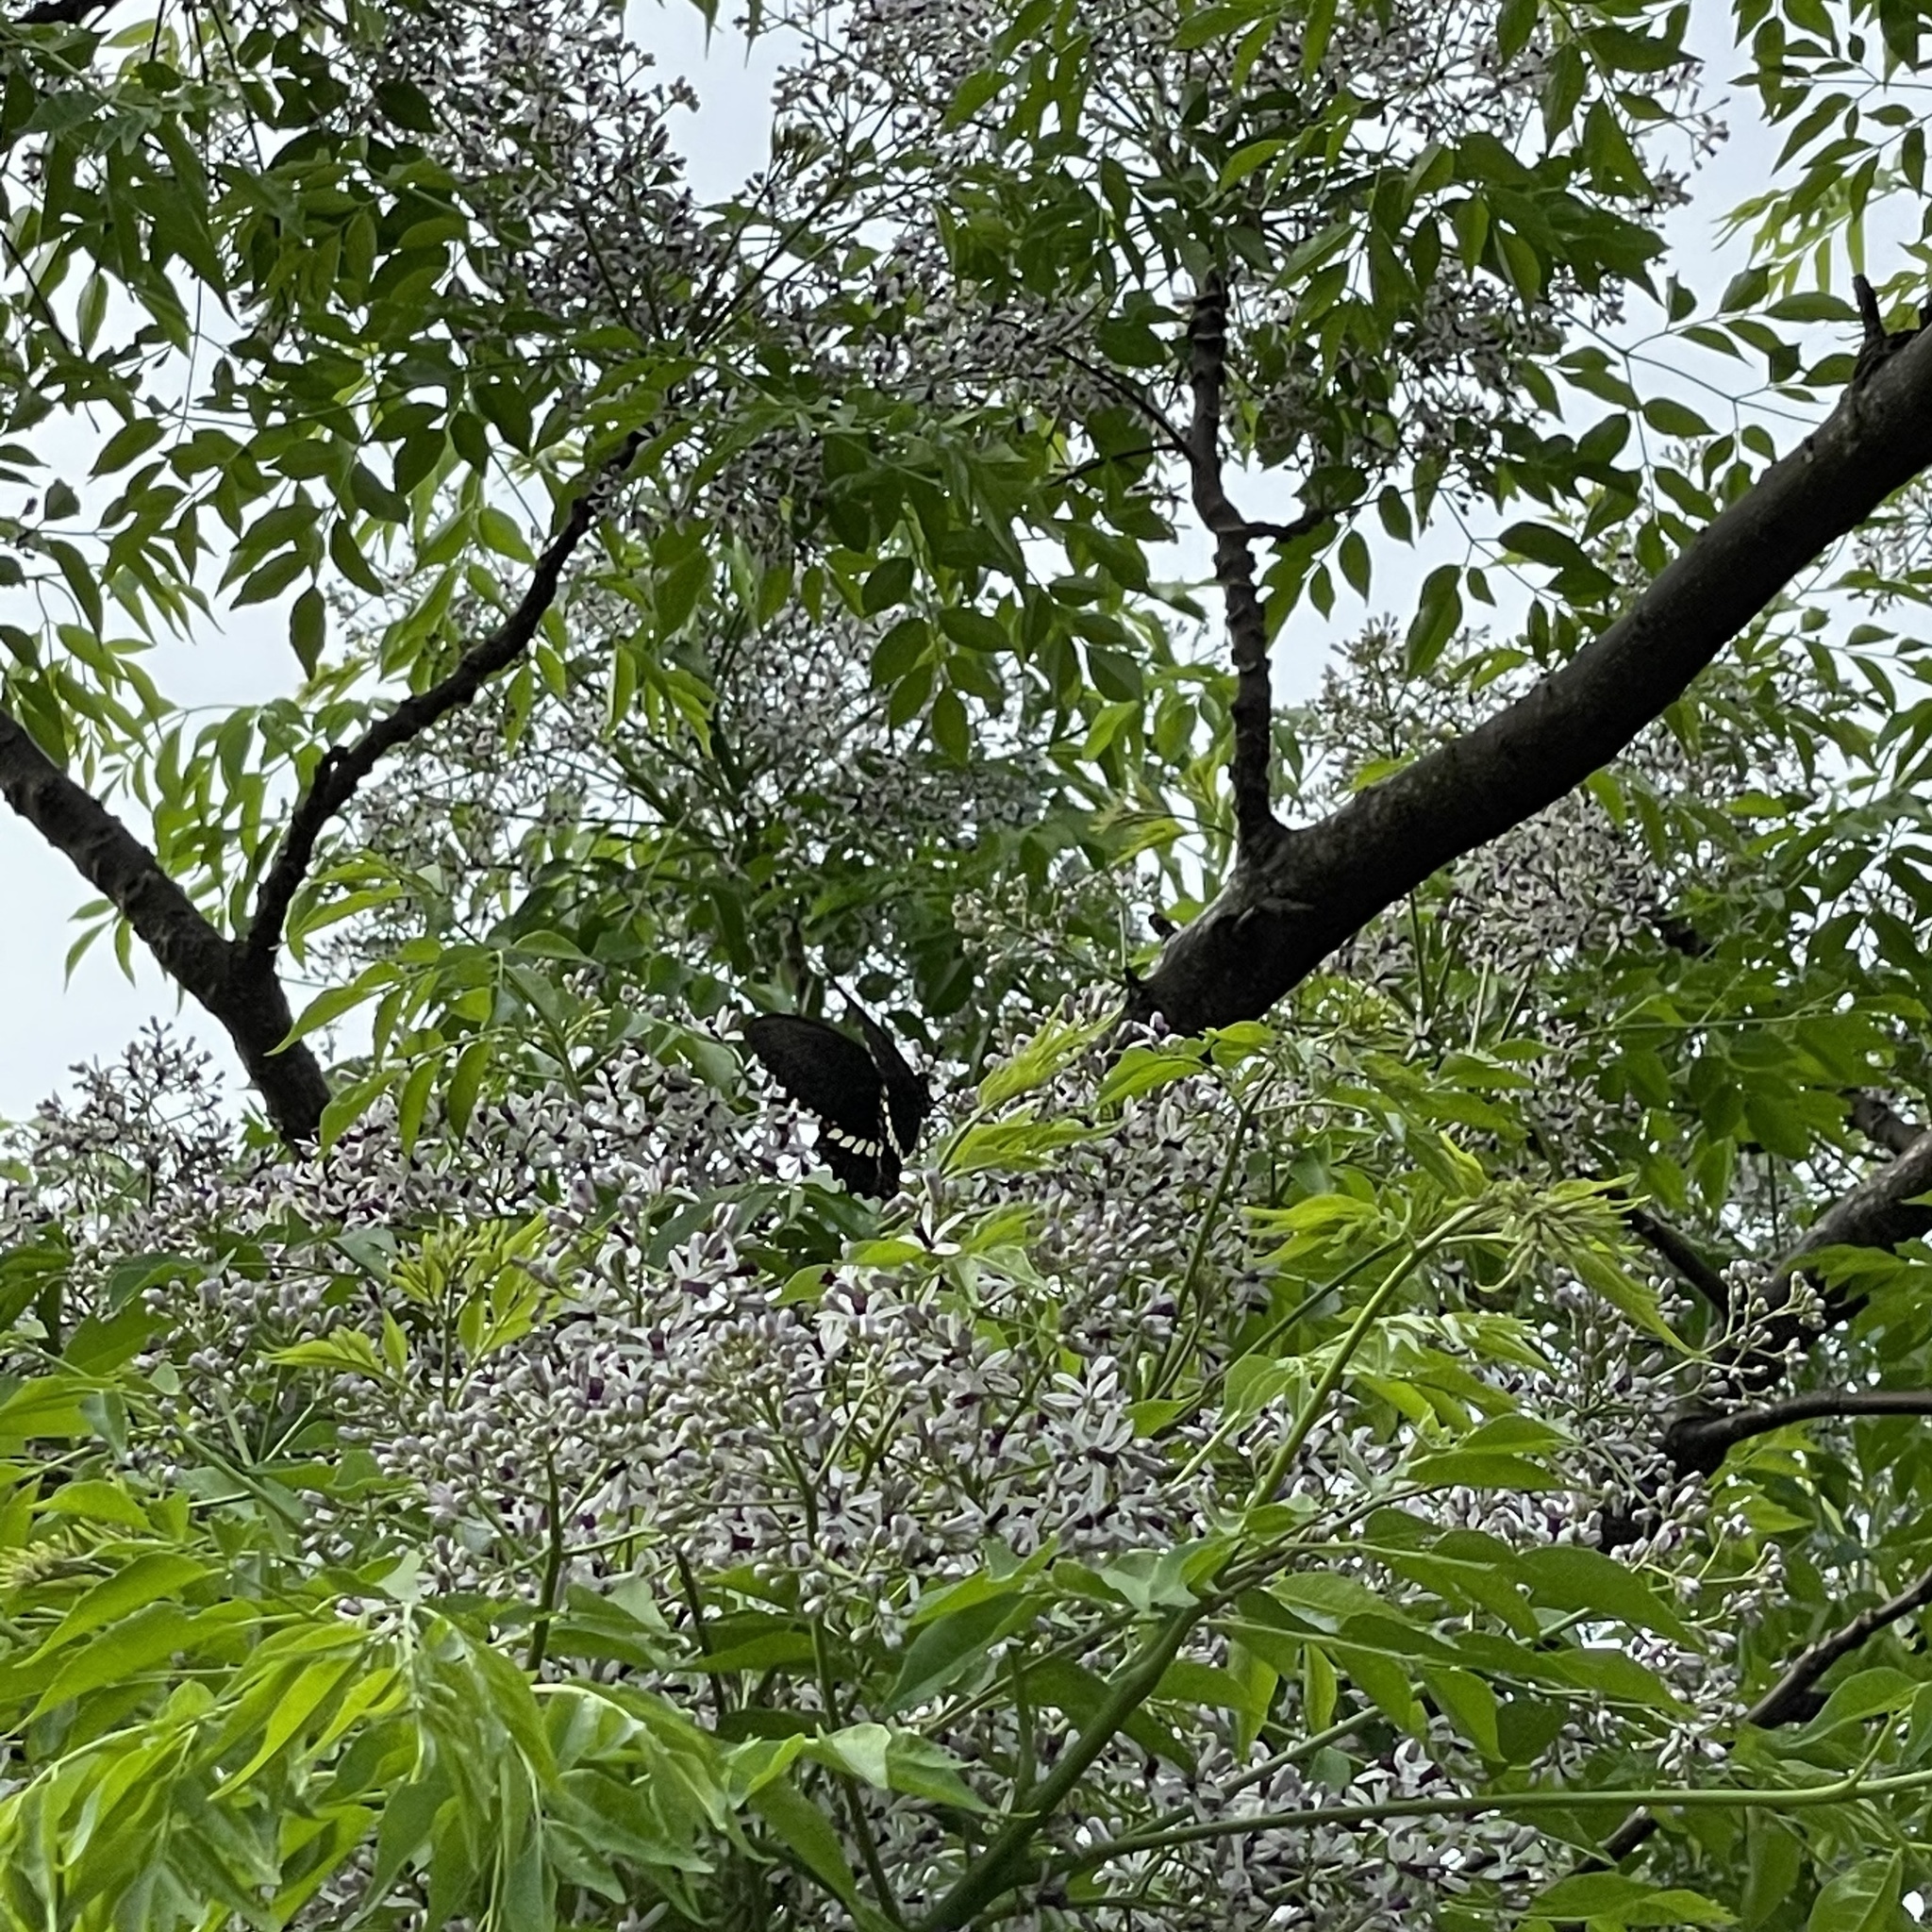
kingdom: Animalia
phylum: Arthropoda
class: Insecta
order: Lepidoptera
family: Papilionidae
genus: Papilio
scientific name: Papilio polytes
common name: Common mormon
